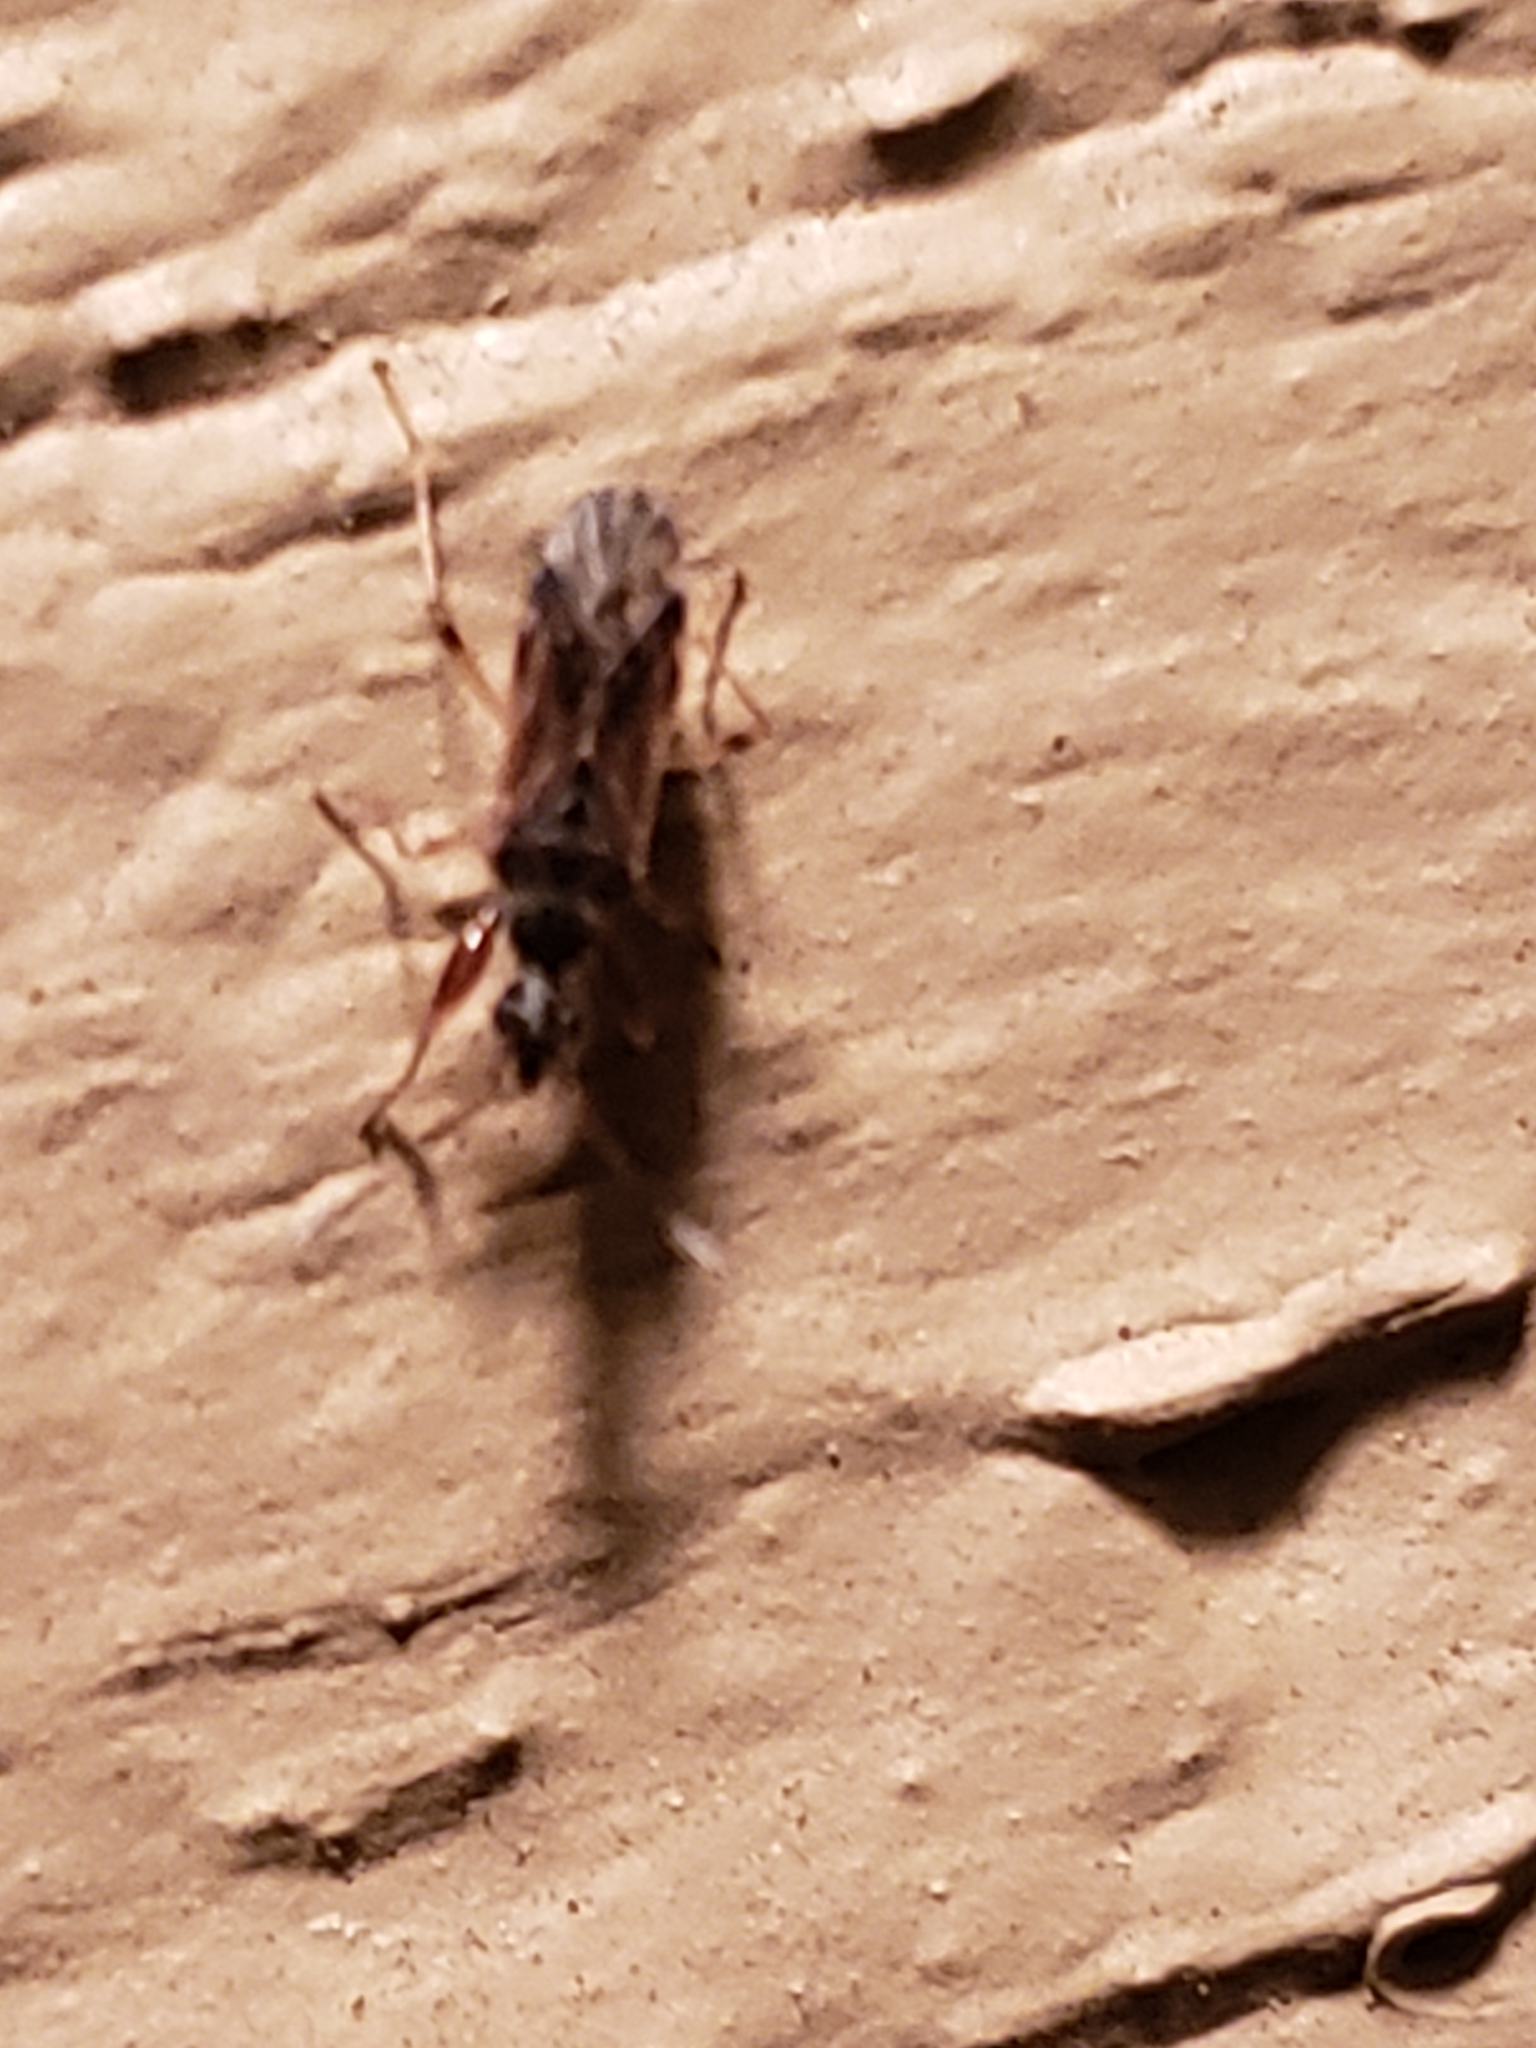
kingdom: Animalia
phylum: Arthropoda
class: Insecta
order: Hemiptera
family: Rhyparochromidae
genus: Heraeus
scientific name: Heraeus plebejus
